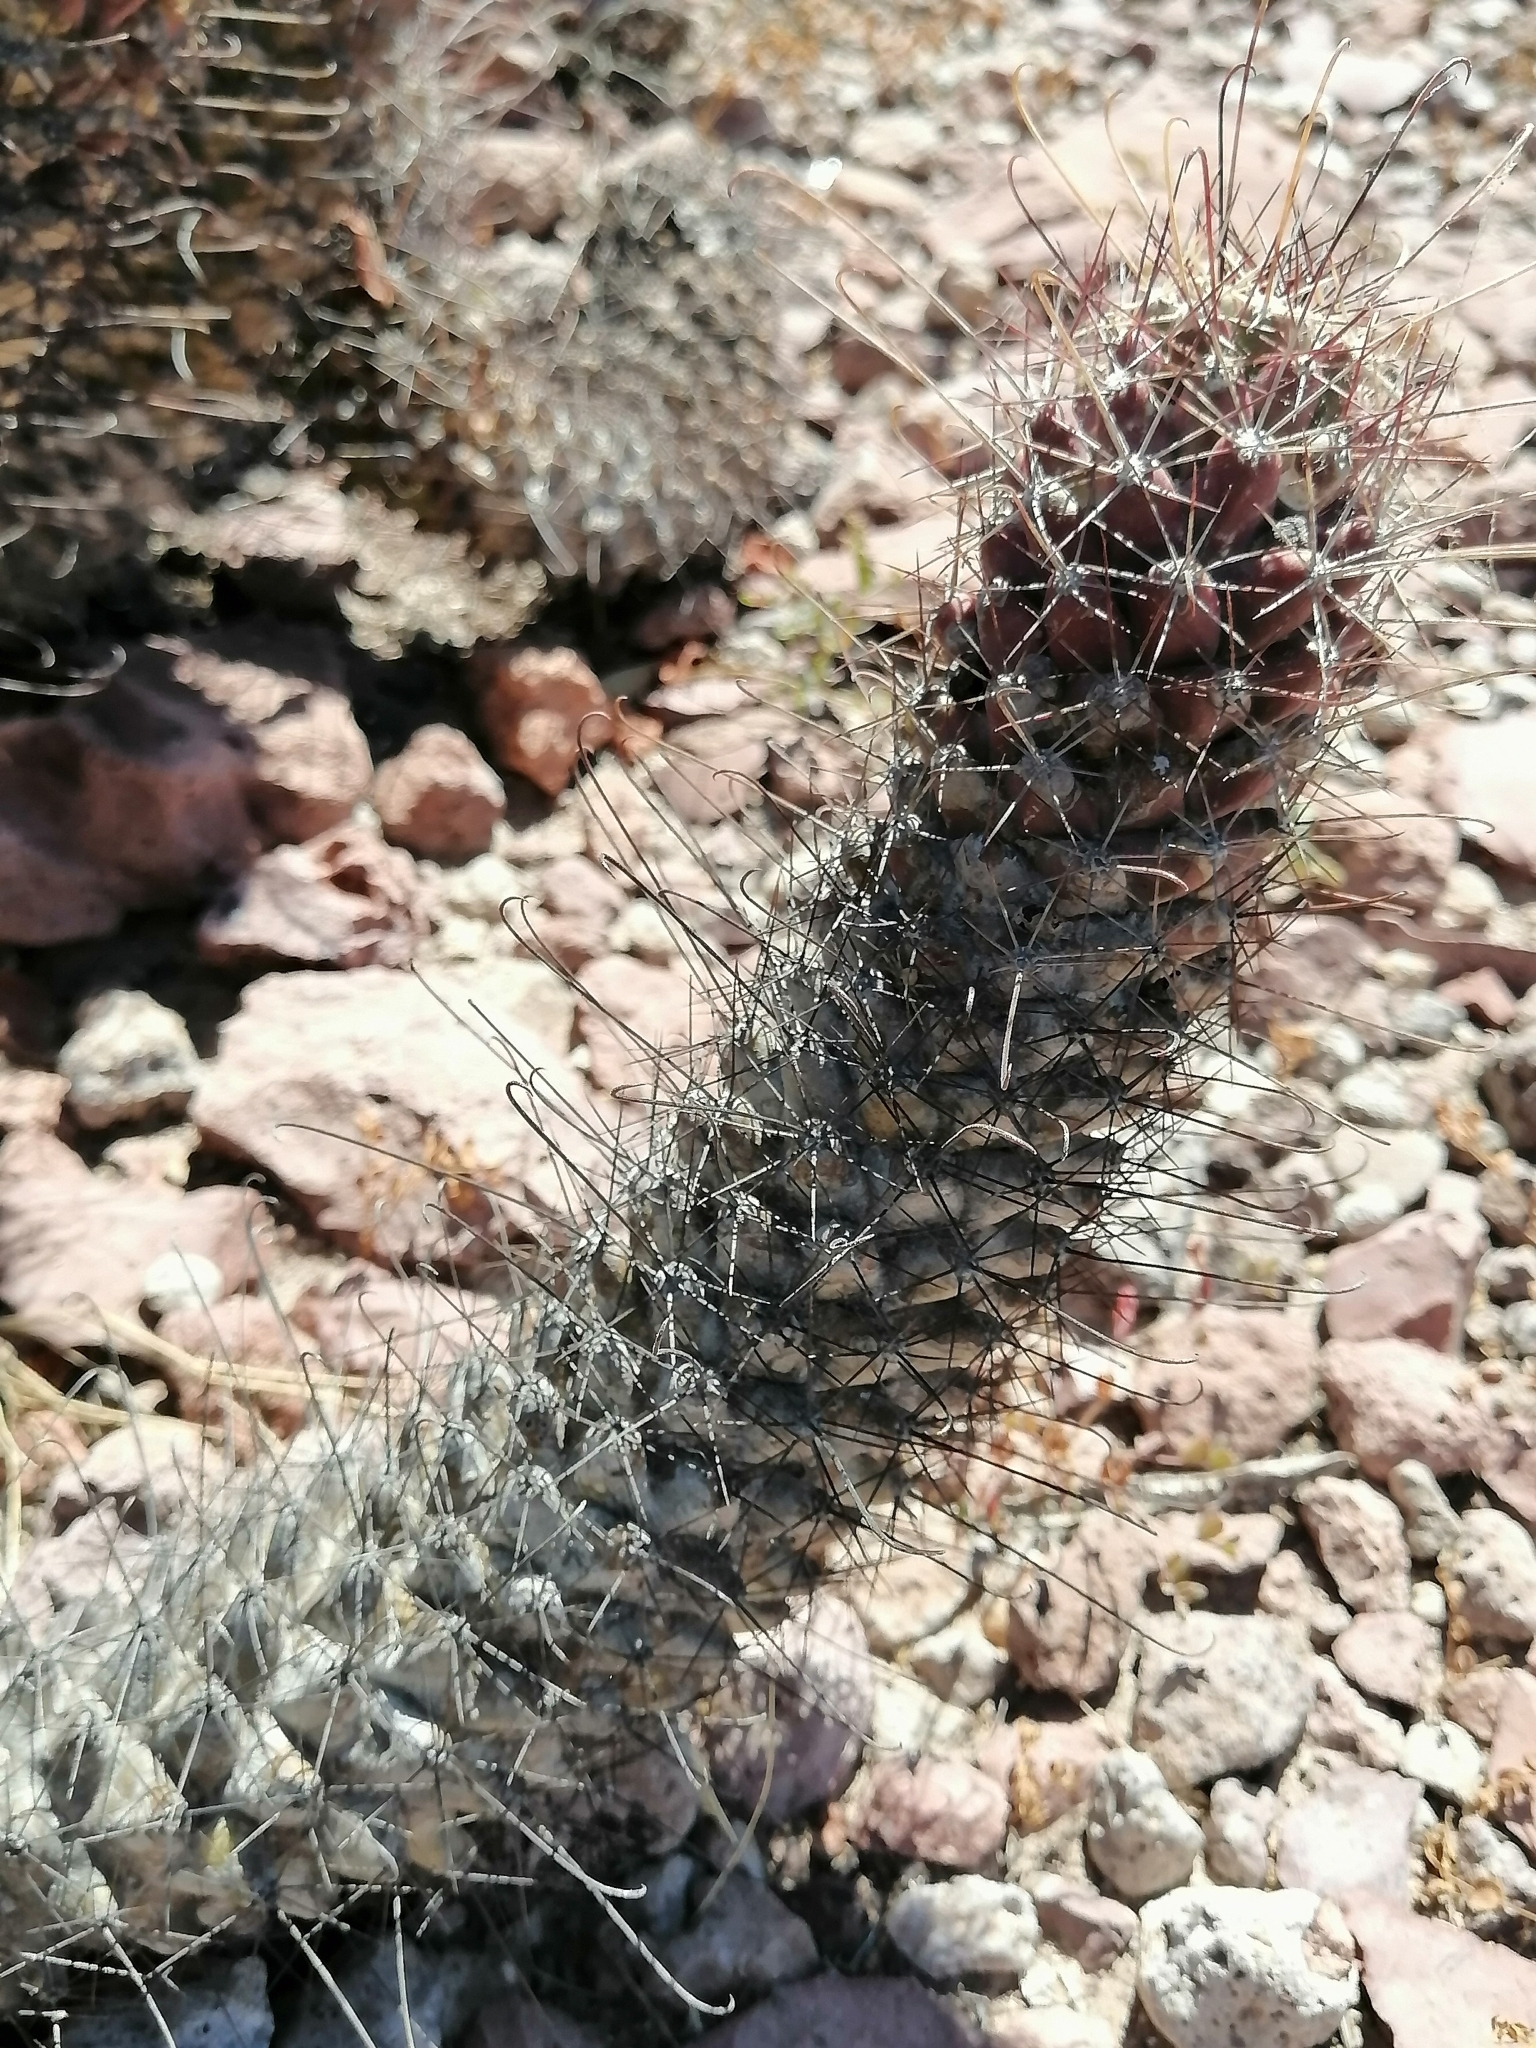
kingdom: Plantae
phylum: Tracheophyta
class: Magnoliopsida
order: Caryophyllales
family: Cactaceae
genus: Cochemiea
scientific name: Cochemiea poselgeri
